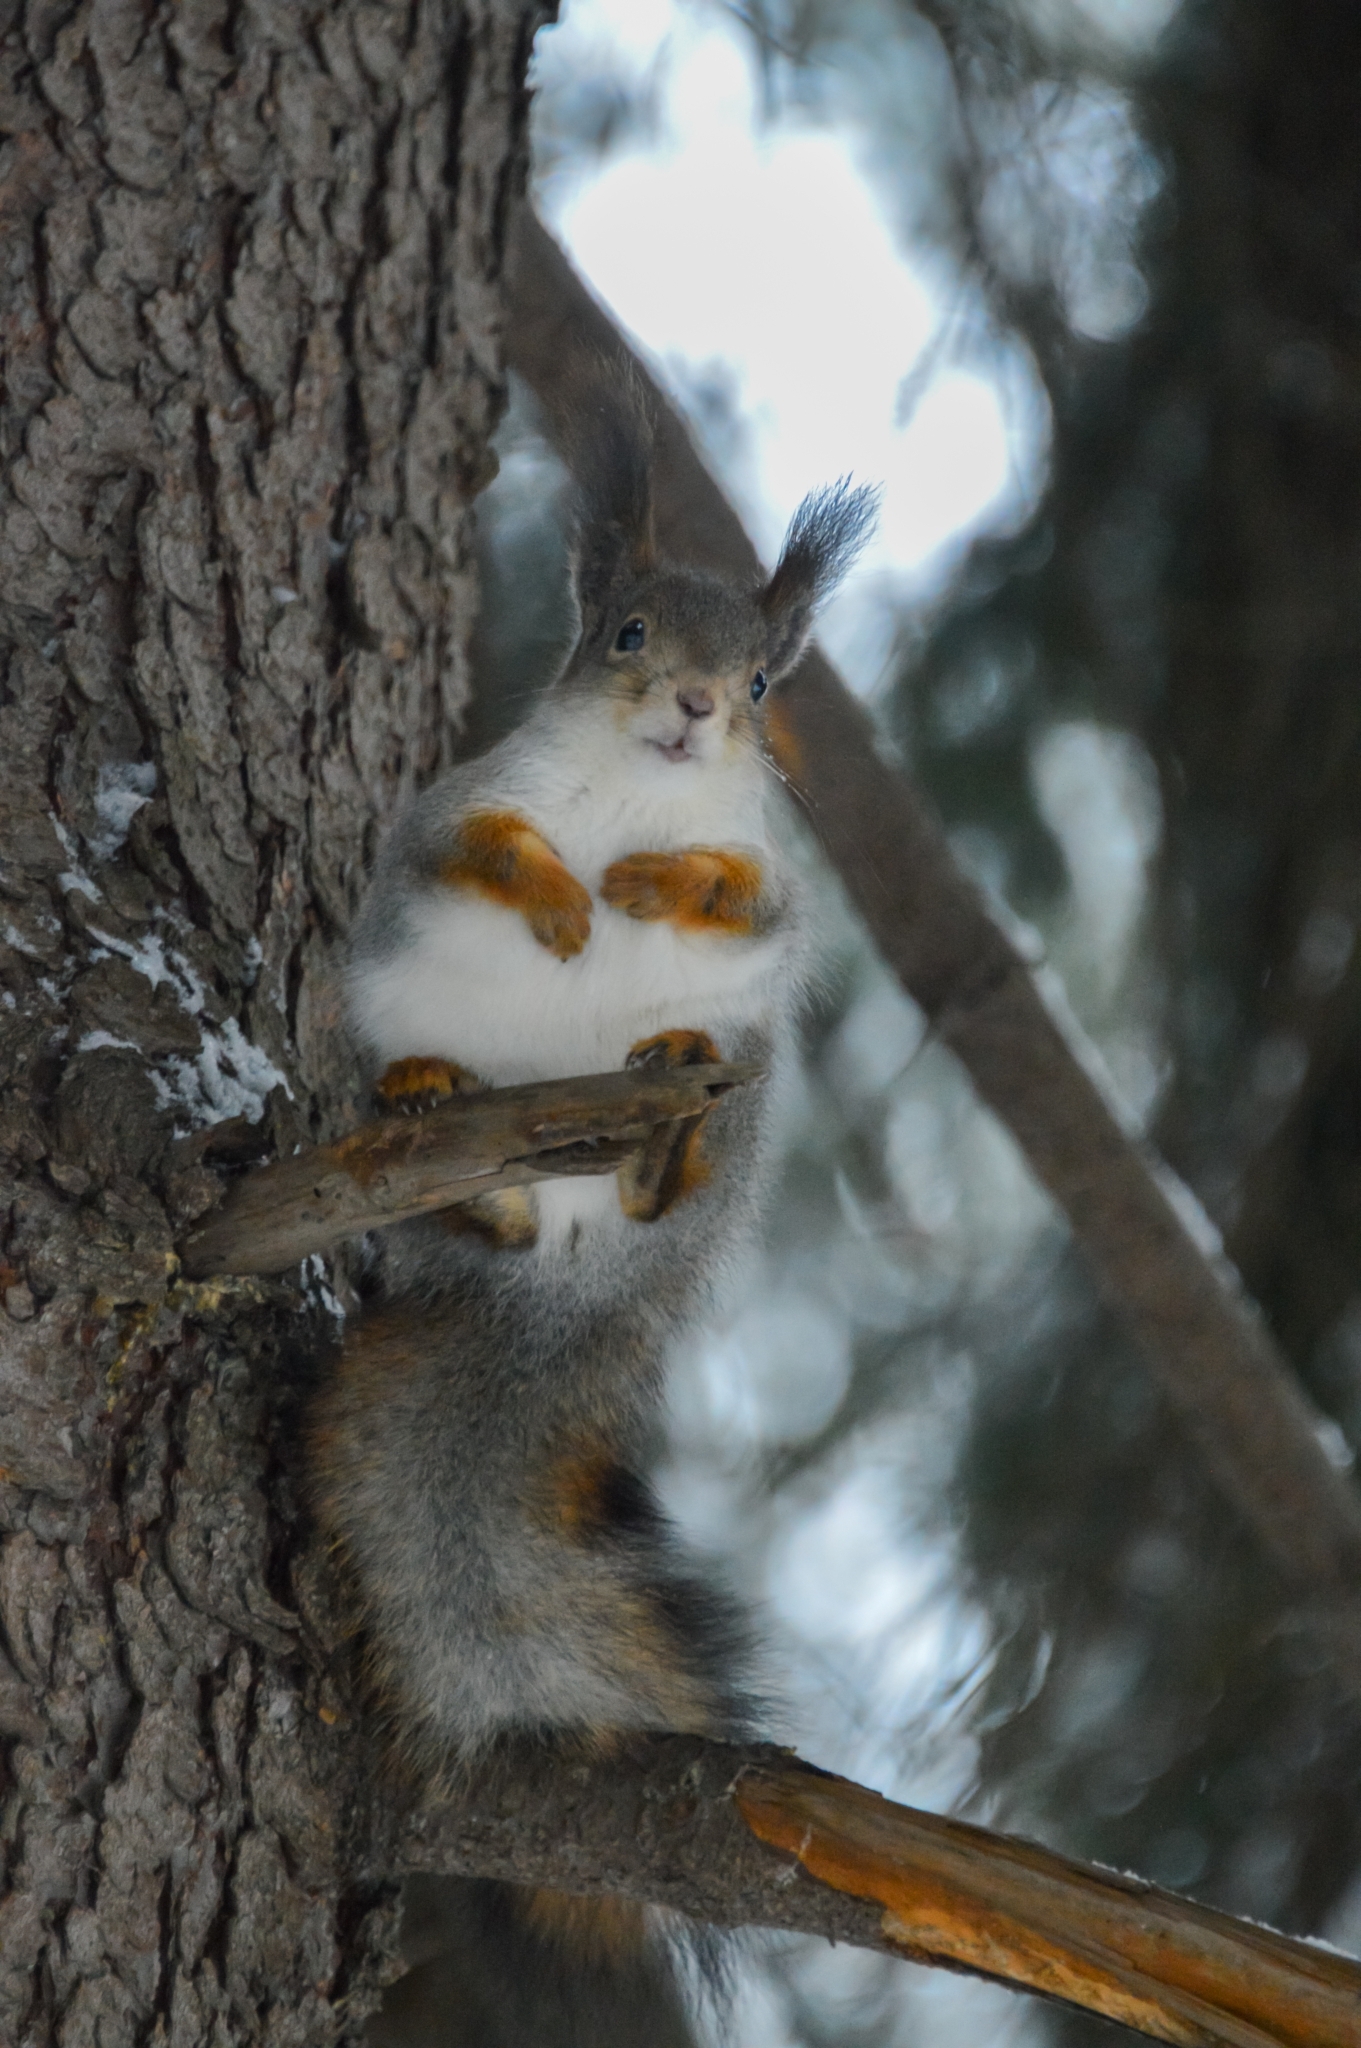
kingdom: Animalia
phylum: Chordata
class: Mammalia
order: Rodentia
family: Sciuridae
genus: Sciurus
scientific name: Sciurus vulgaris
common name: Eurasian red squirrel
